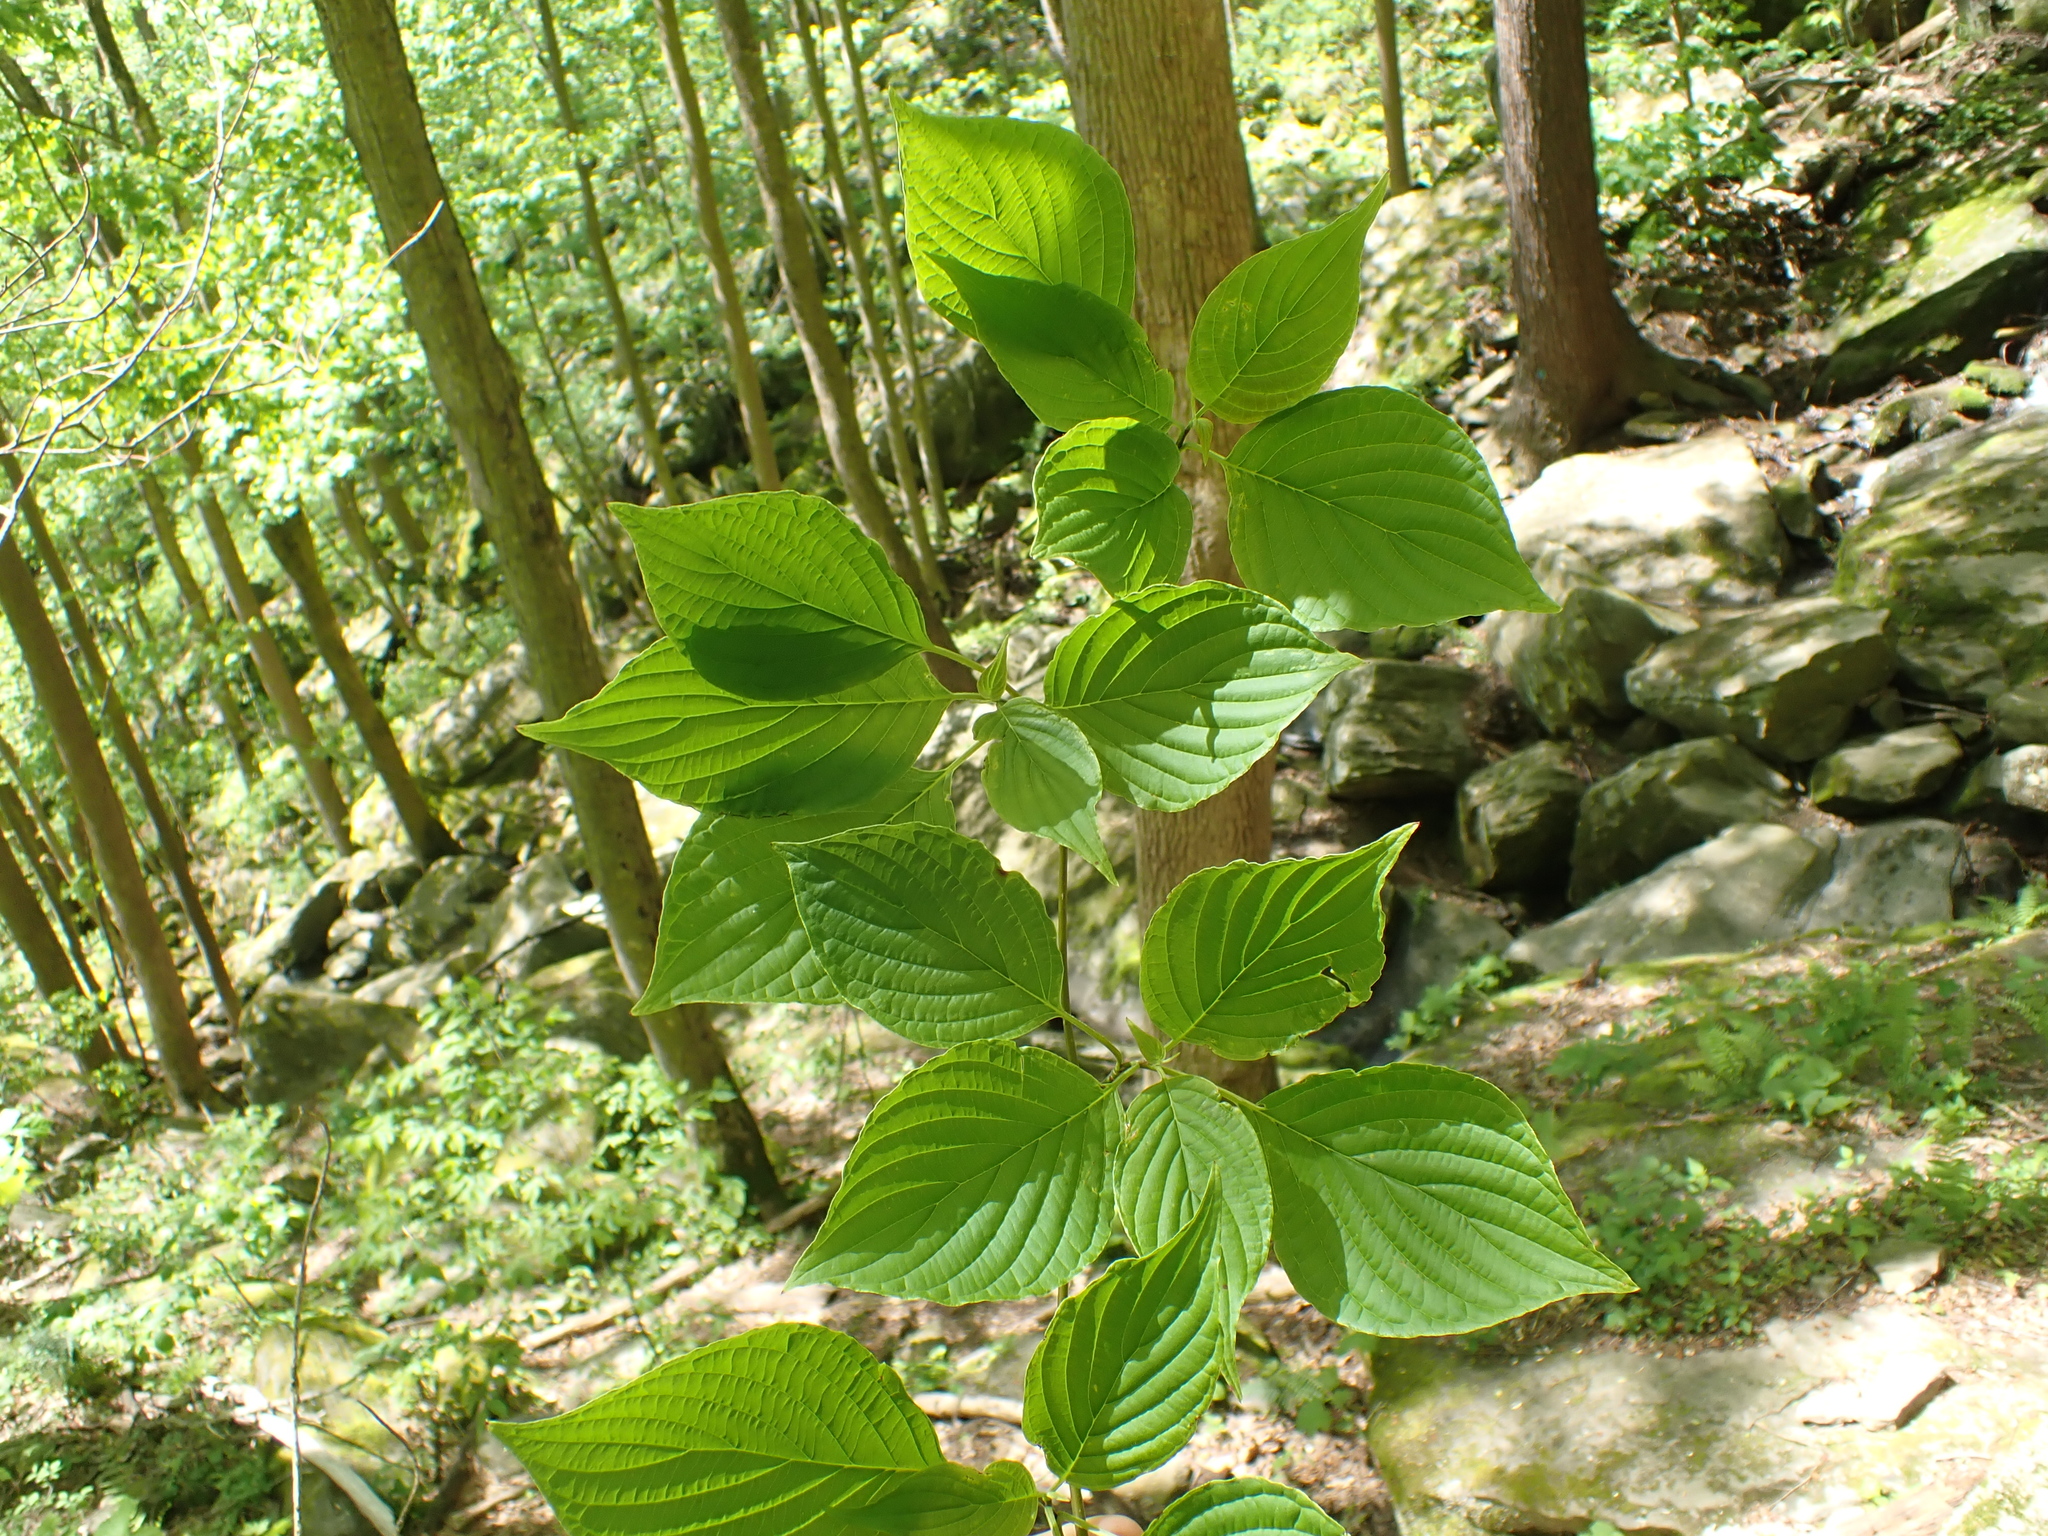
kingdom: Plantae
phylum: Tracheophyta
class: Magnoliopsida
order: Cornales
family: Cornaceae
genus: Cornus
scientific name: Cornus alternifolia
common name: Pagoda dogwood
